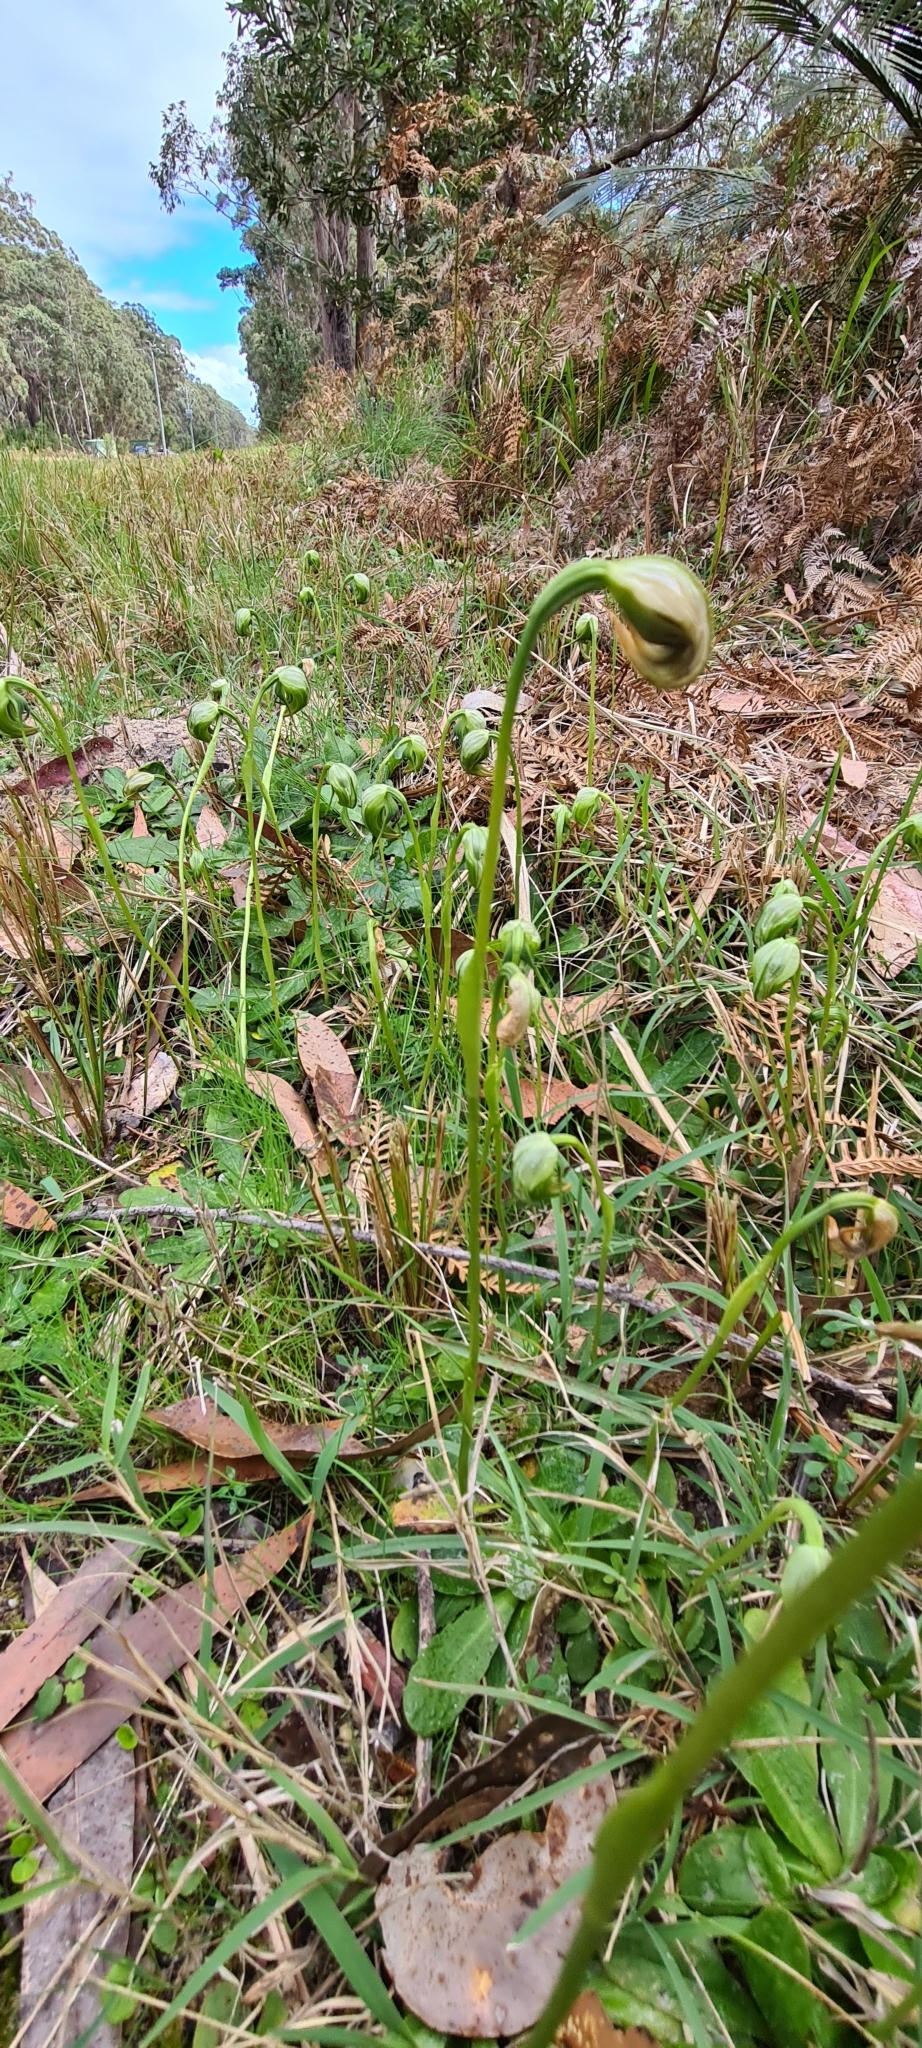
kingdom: Plantae
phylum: Tracheophyta
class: Liliopsida
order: Asparagales
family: Orchidaceae
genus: Pterostylis
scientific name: Pterostylis nutans
